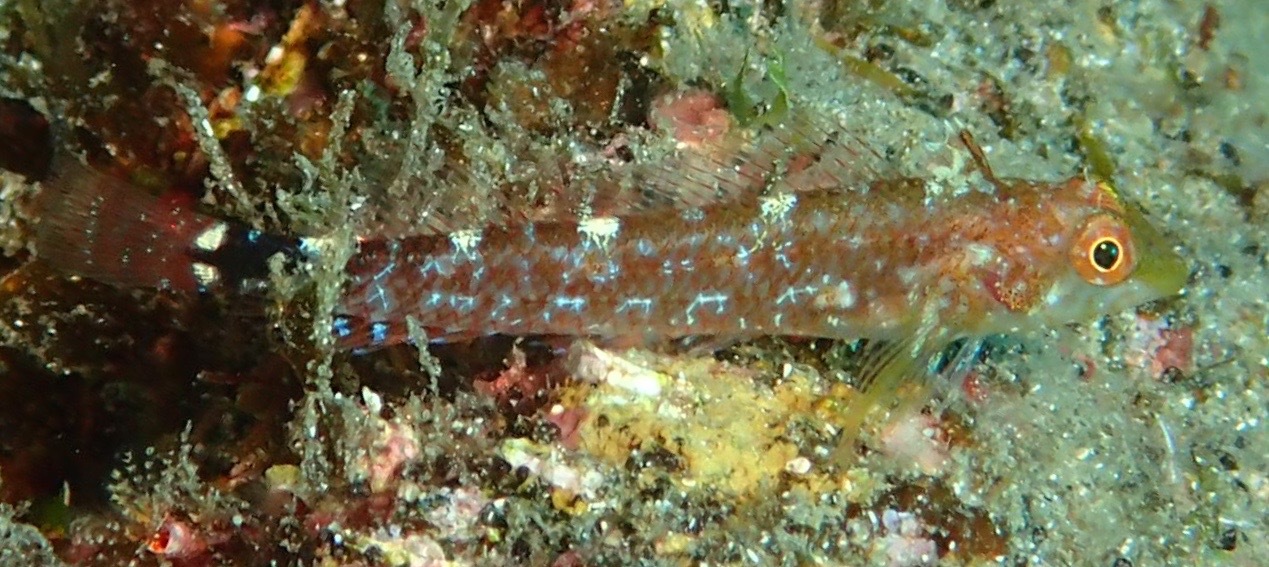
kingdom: Animalia
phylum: Chordata
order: Perciformes
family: Tripterygiidae
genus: Tripterygion
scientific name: Tripterygion delaisi
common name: Black-face blenny
